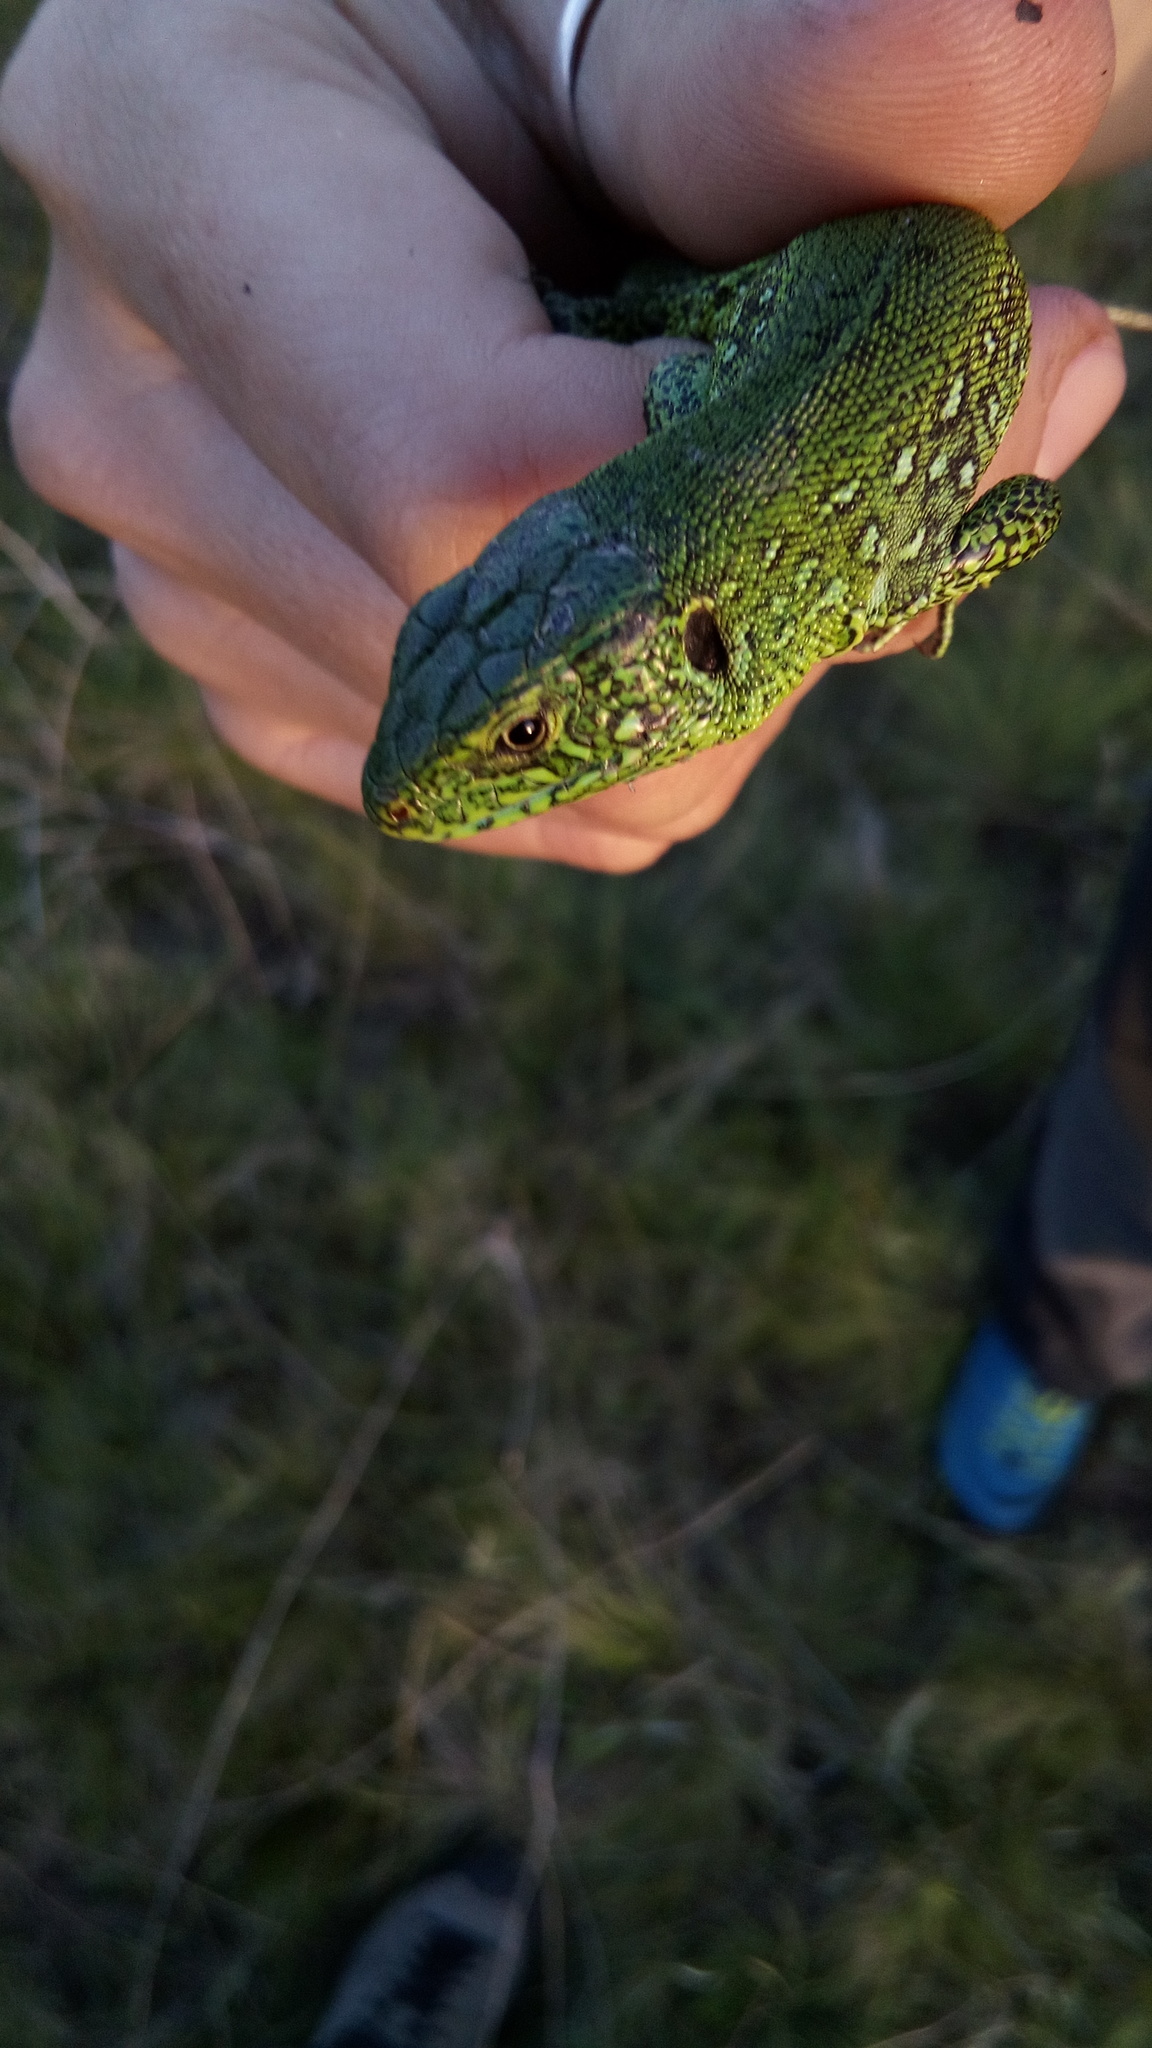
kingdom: Animalia
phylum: Chordata
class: Squamata
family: Lacertidae
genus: Lacerta
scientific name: Lacerta agilis
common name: Sand lizard
